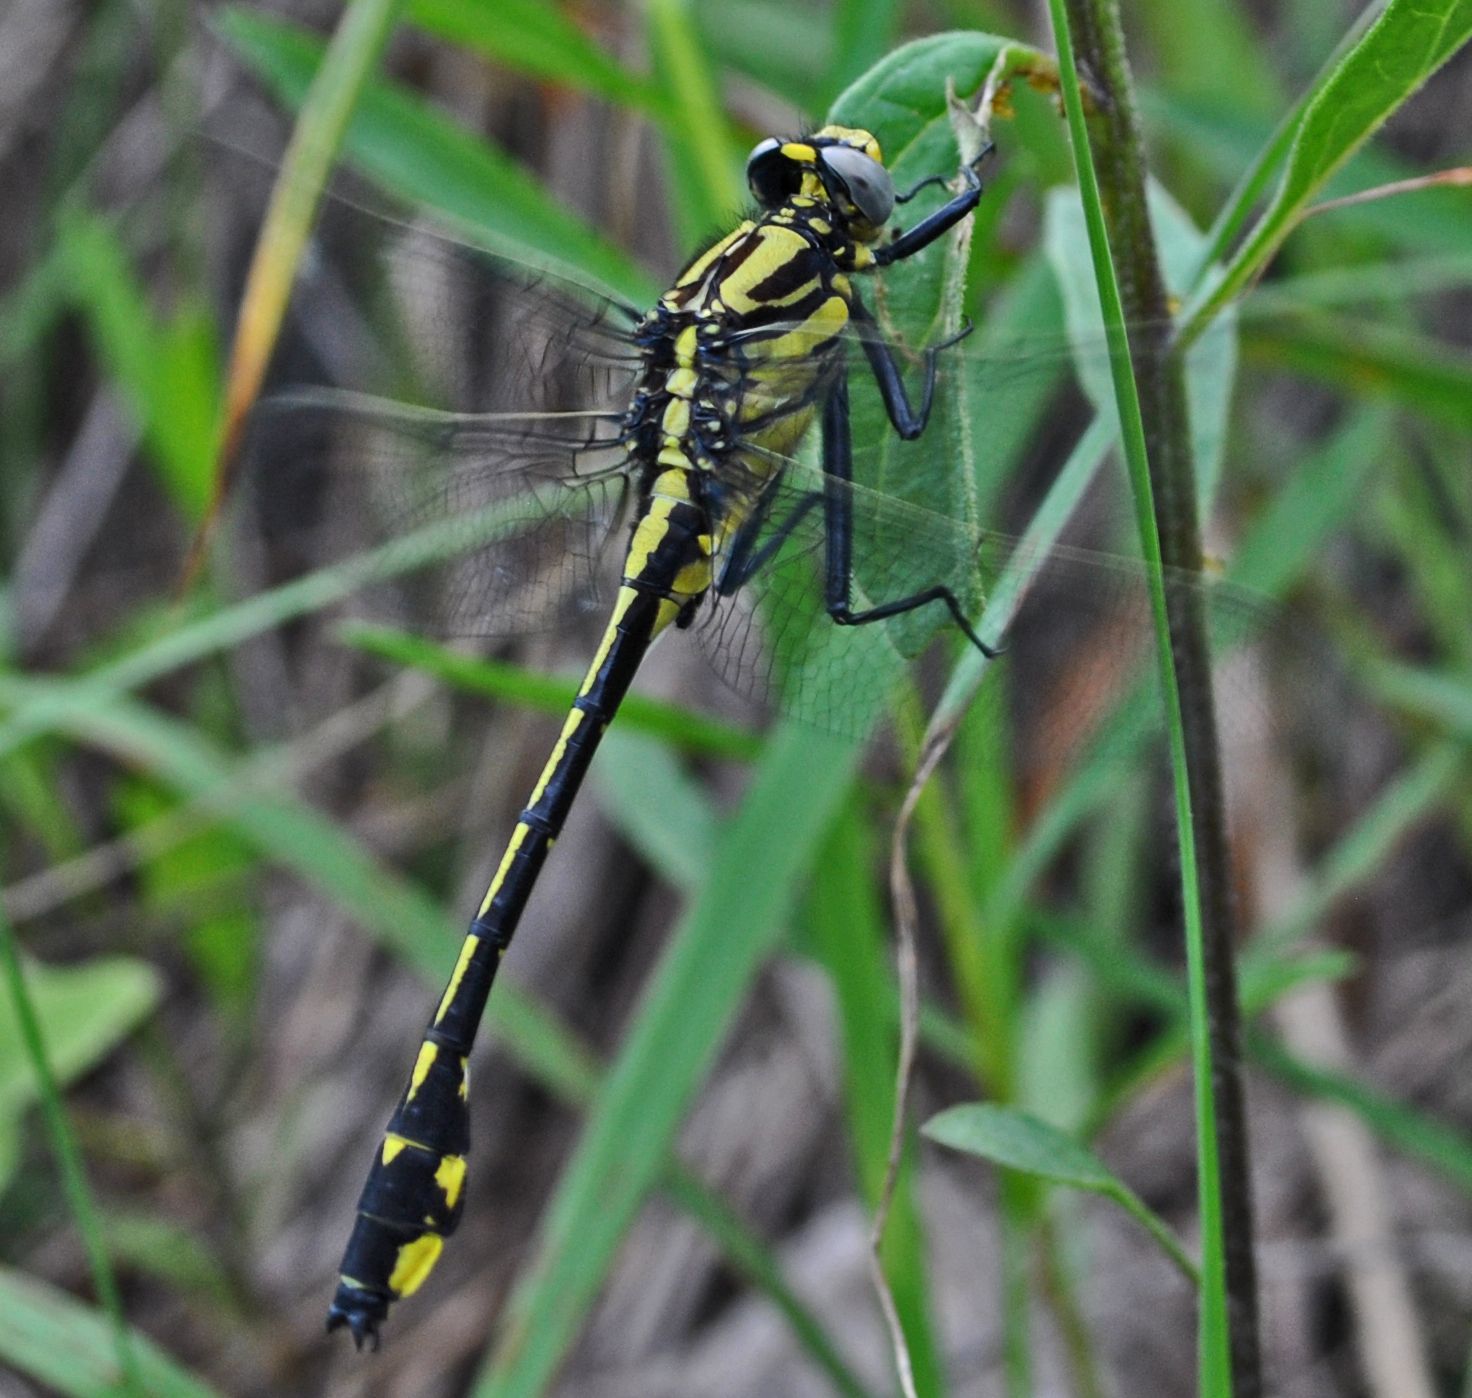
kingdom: Animalia
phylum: Arthropoda
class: Insecta
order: Odonata
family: Gomphidae
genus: Gomphurus
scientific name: Gomphurus fraternus
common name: Midland clubtail
